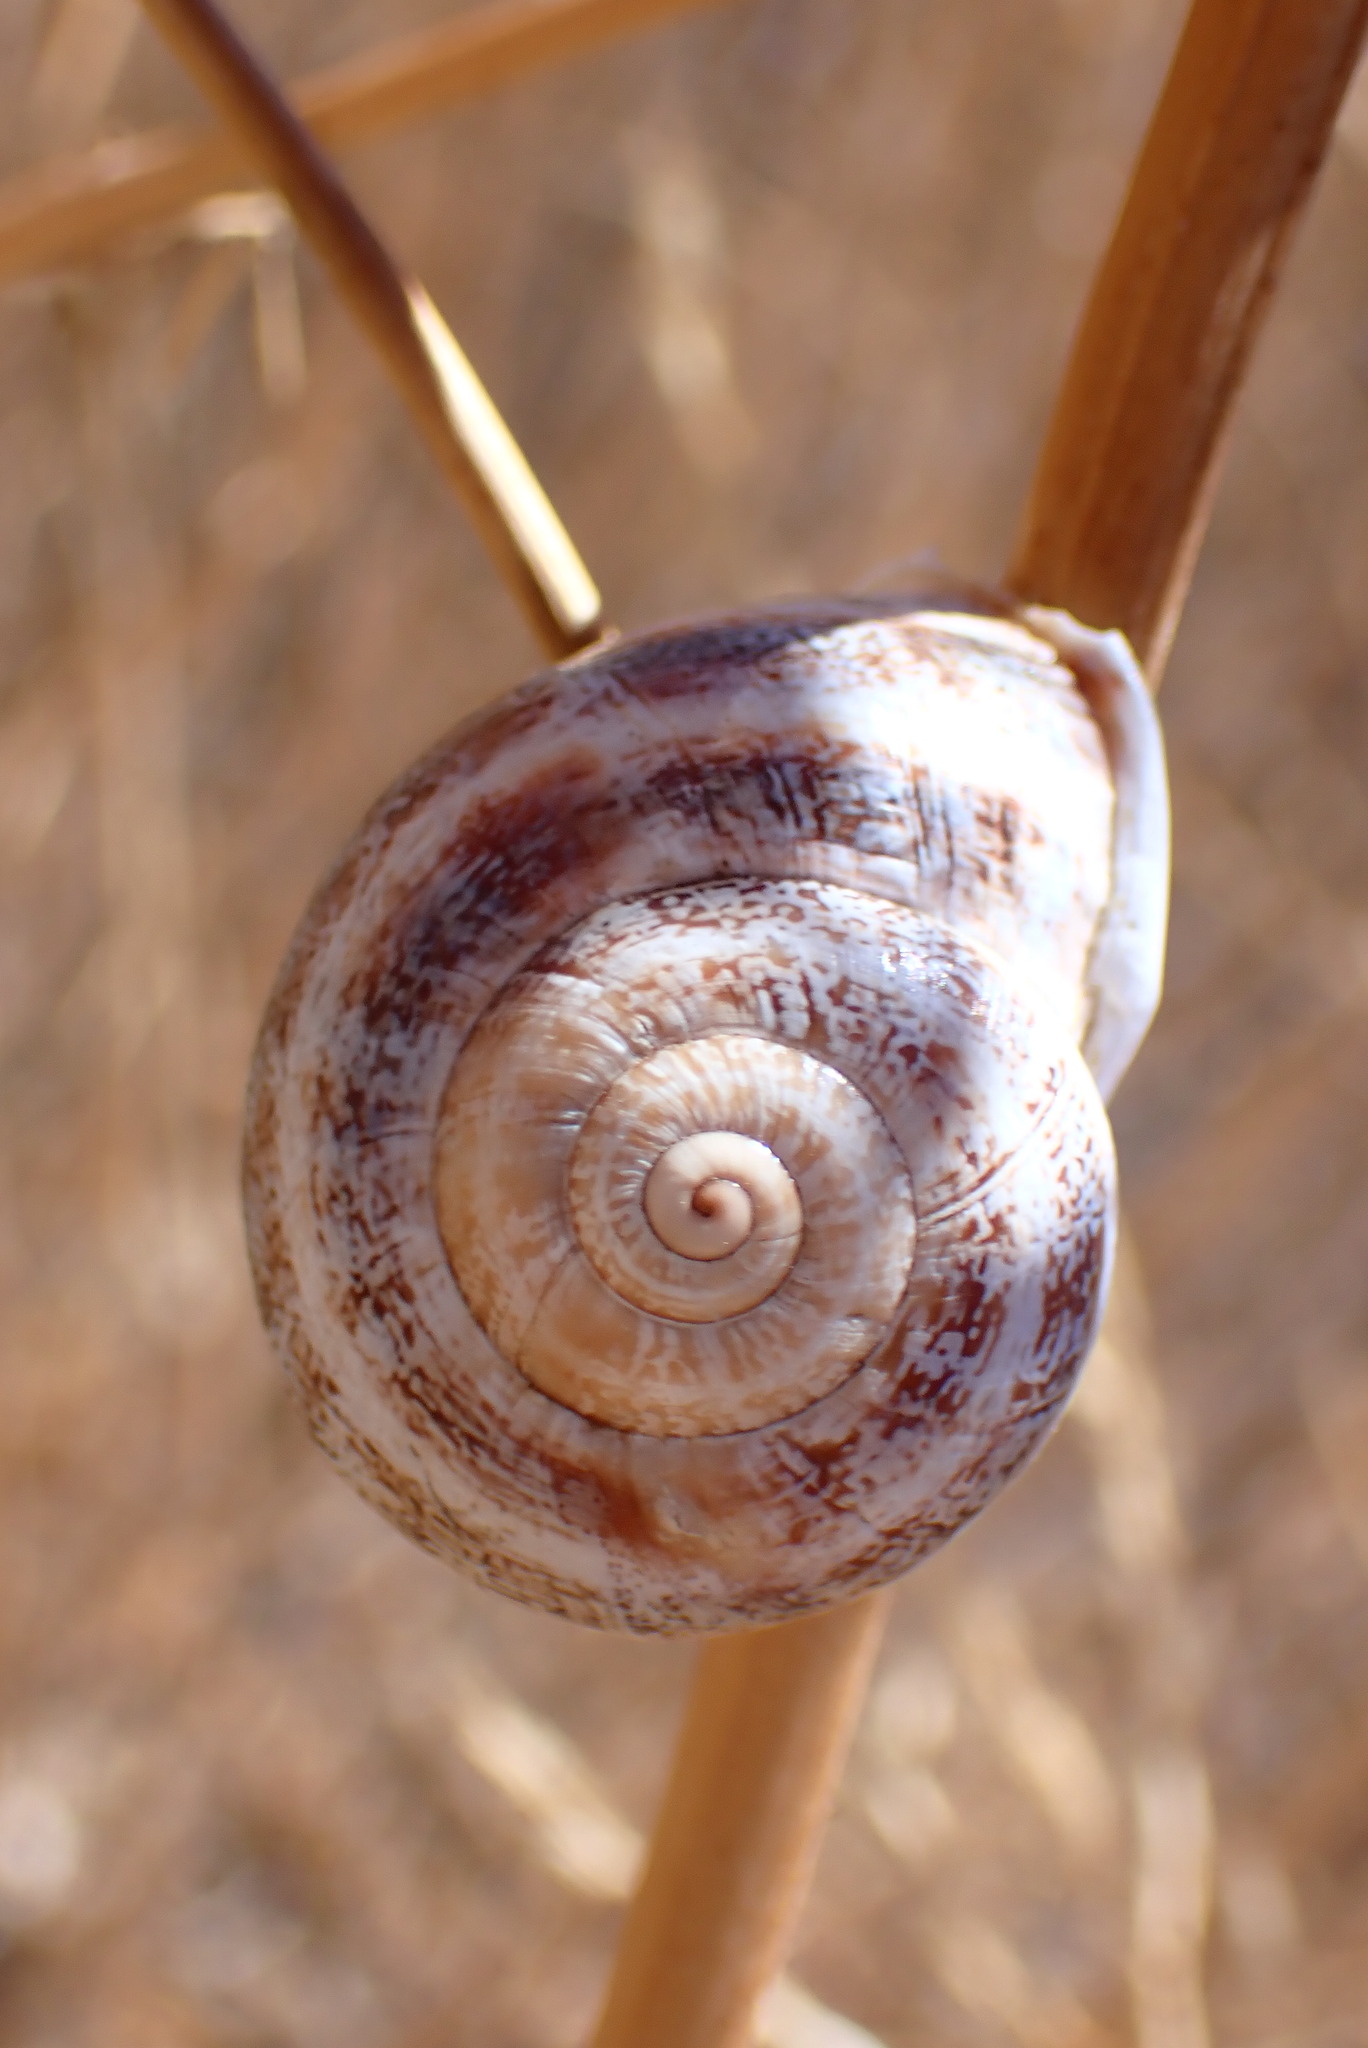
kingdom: Animalia
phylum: Mollusca
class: Gastropoda
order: Stylommatophora
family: Helicidae
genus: Otala
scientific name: Otala lactea
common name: Milk snail
